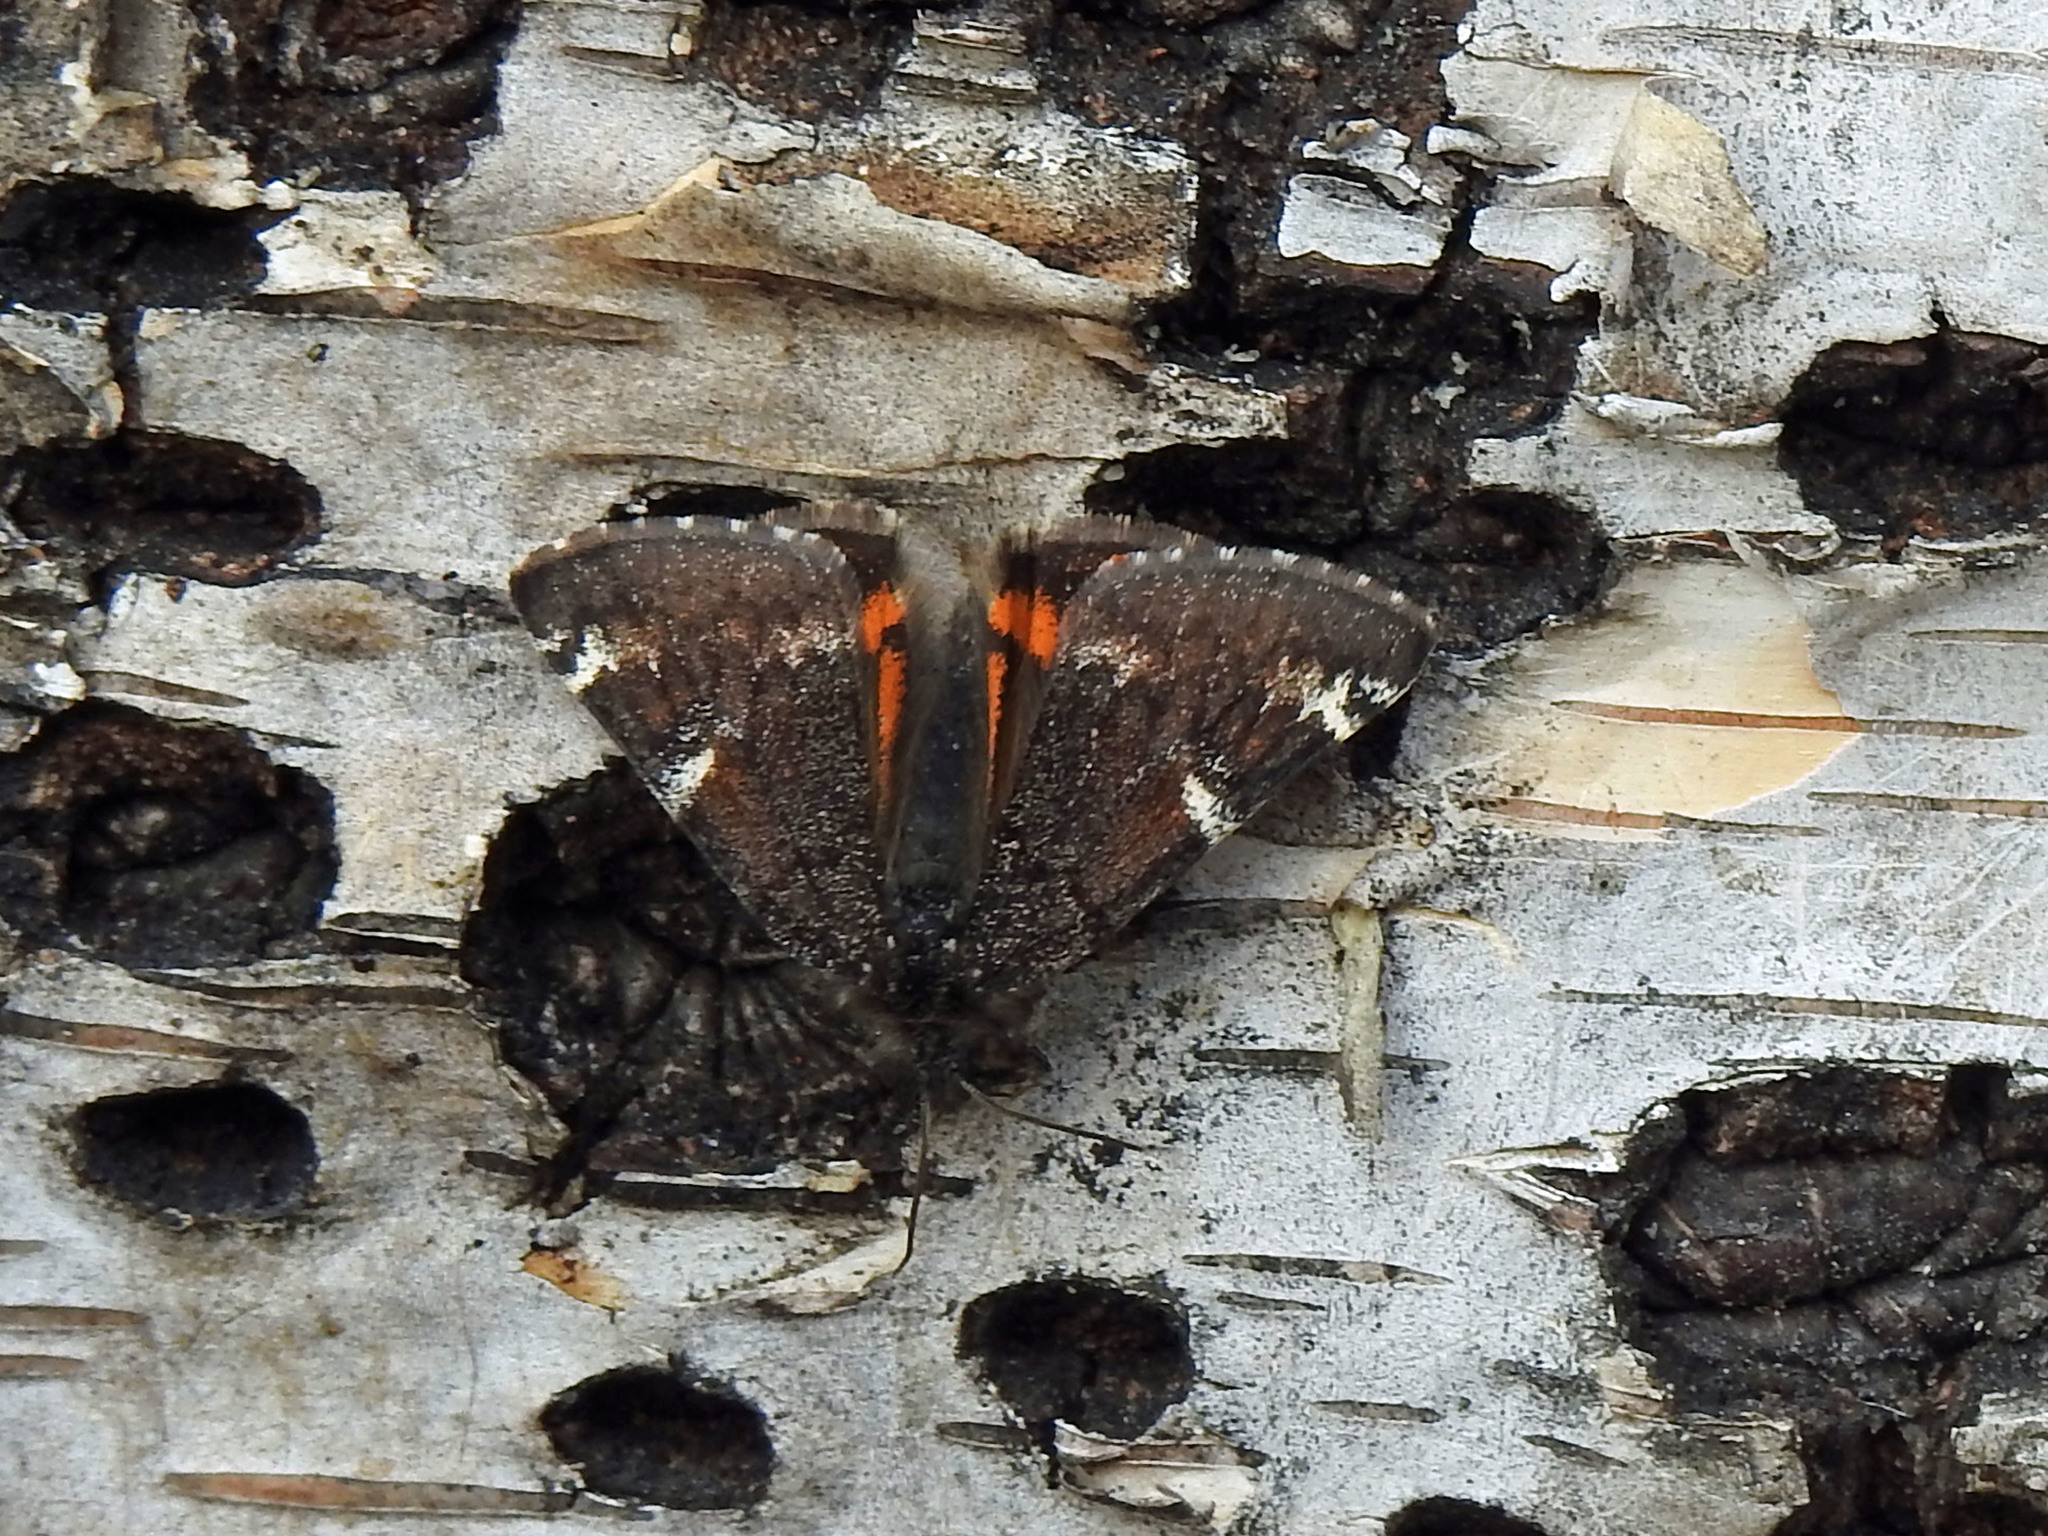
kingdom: Animalia
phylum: Arthropoda
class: Insecta
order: Lepidoptera
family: Geometridae
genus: Archiearis
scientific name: Archiearis infans
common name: First born geometer
